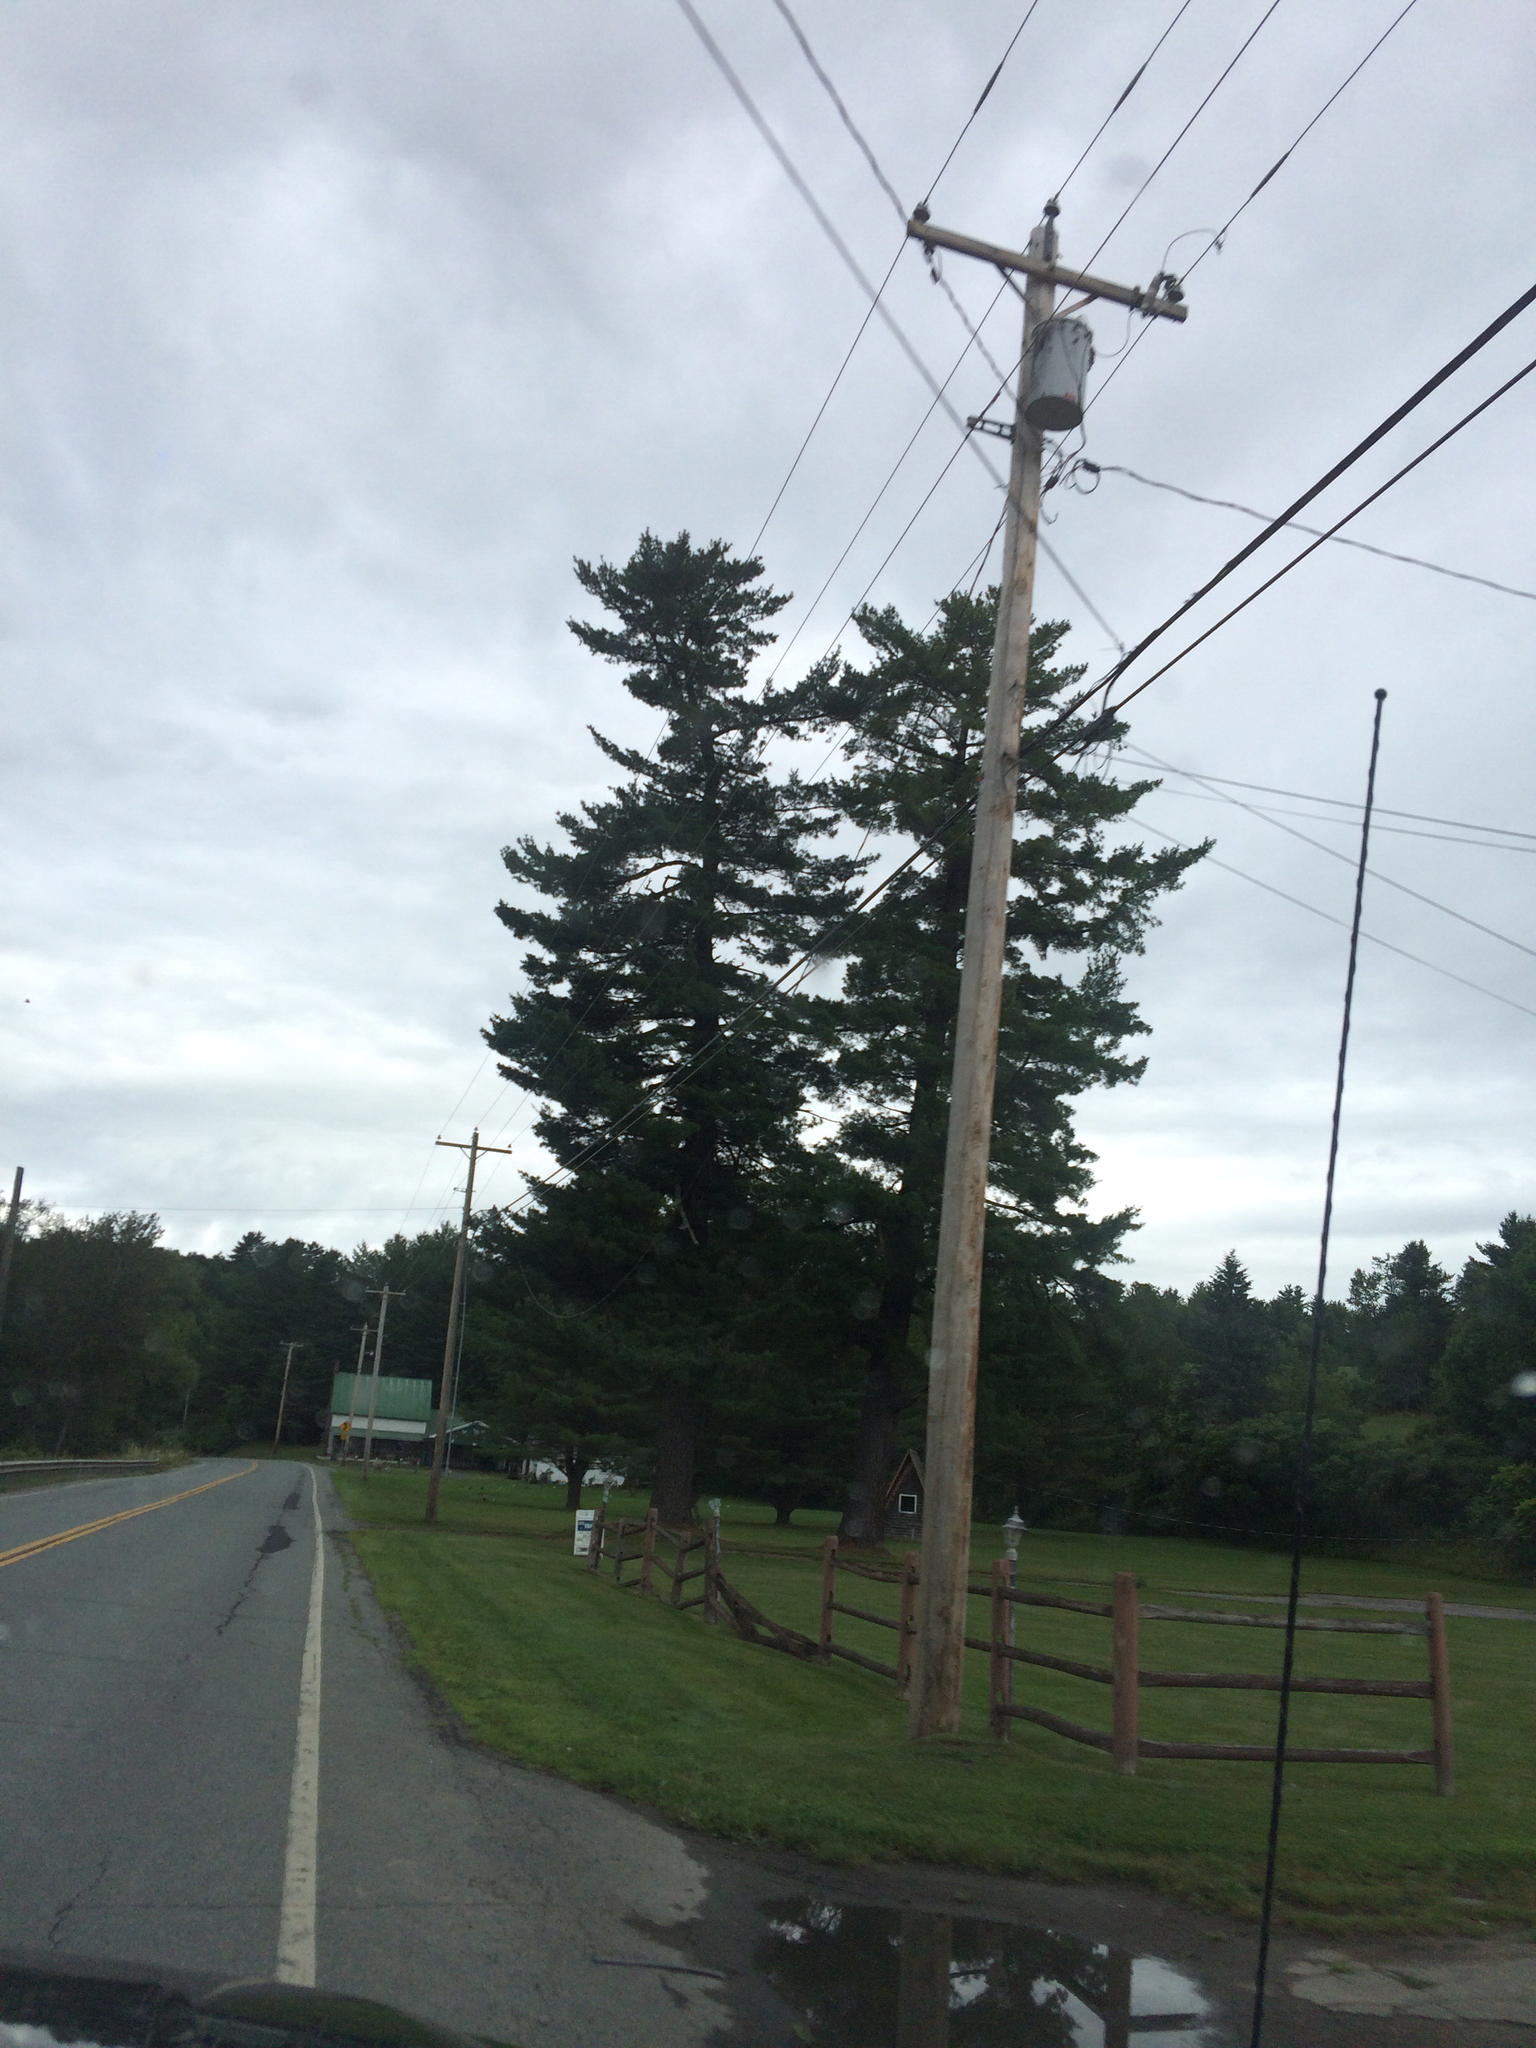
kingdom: Plantae
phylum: Tracheophyta
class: Pinopsida
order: Pinales
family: Pinaceae
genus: Pinus
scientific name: Pinus strobus
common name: Weymouth pine
